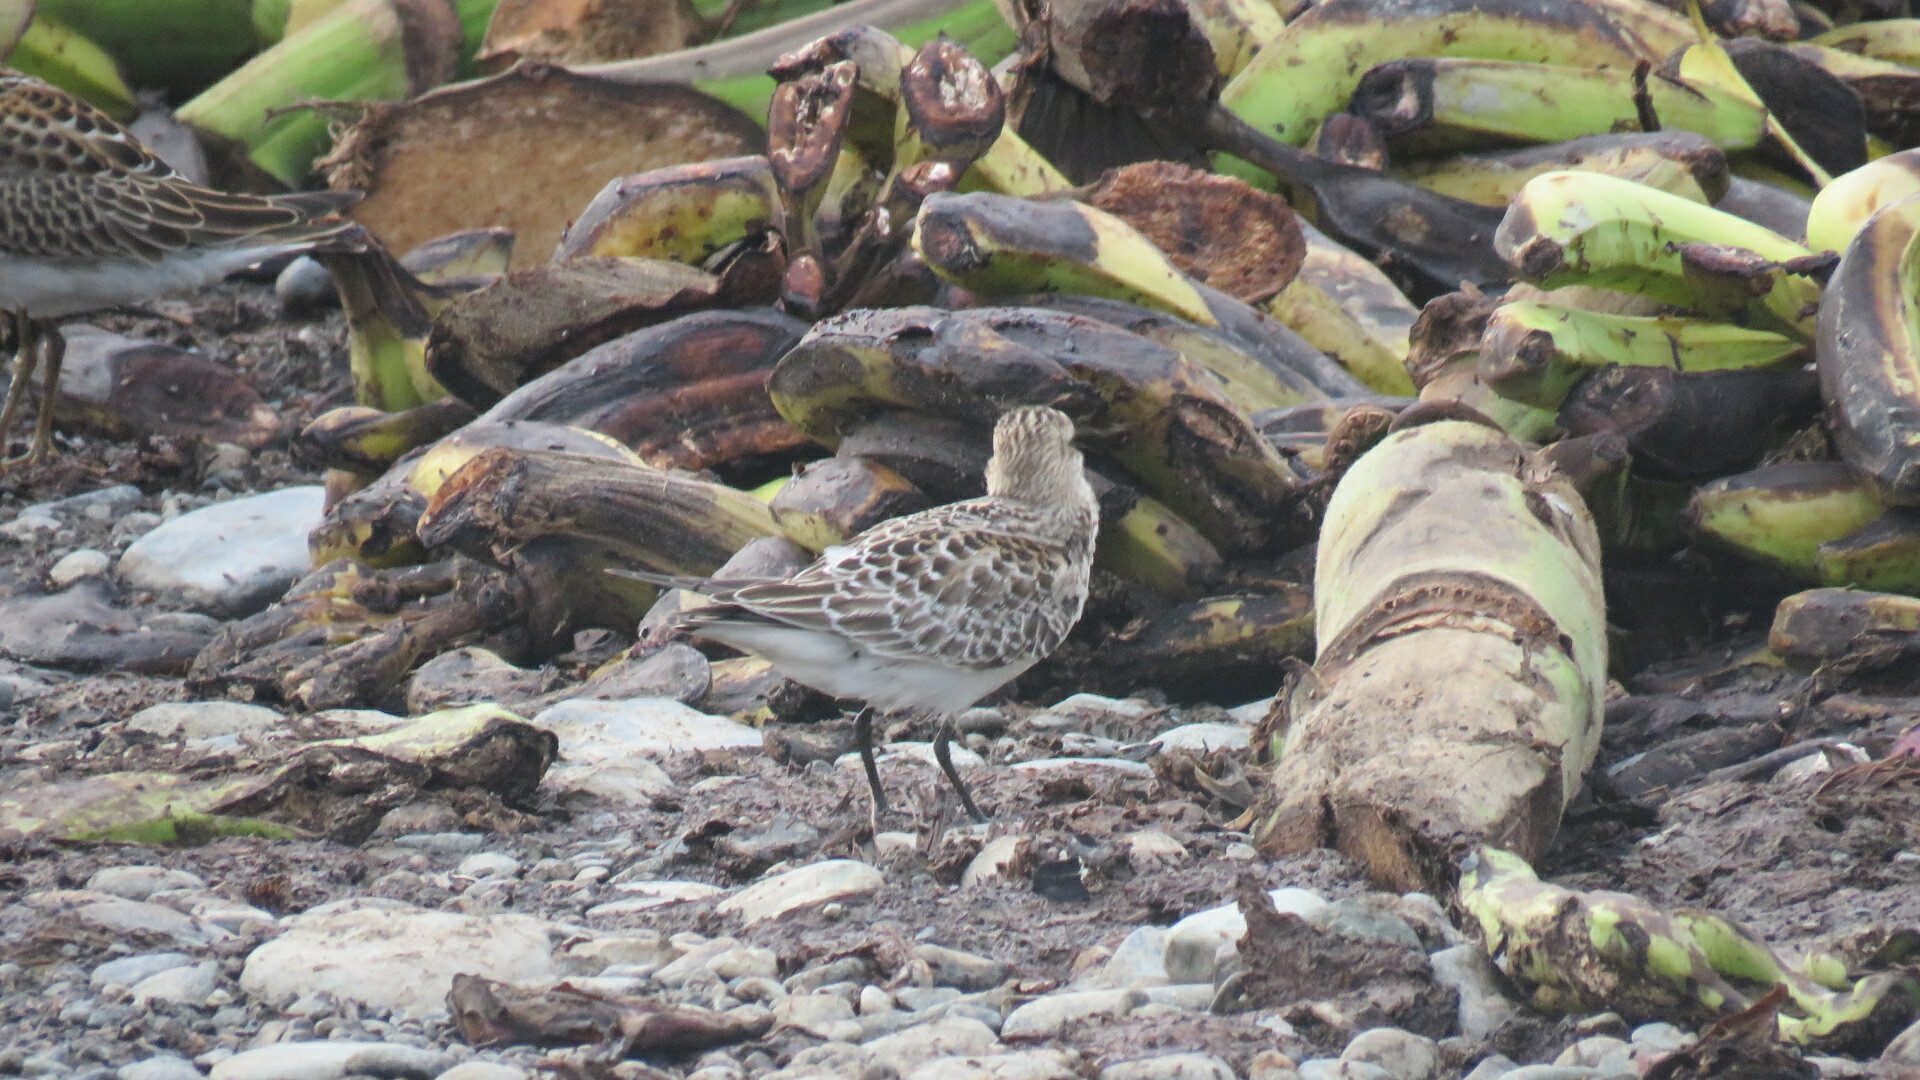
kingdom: Animalia
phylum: Chordata
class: Aves
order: Charadriiformes
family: Scolopacidae
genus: Calidris
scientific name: Calidris bairdii
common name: Baird's sandpiper
